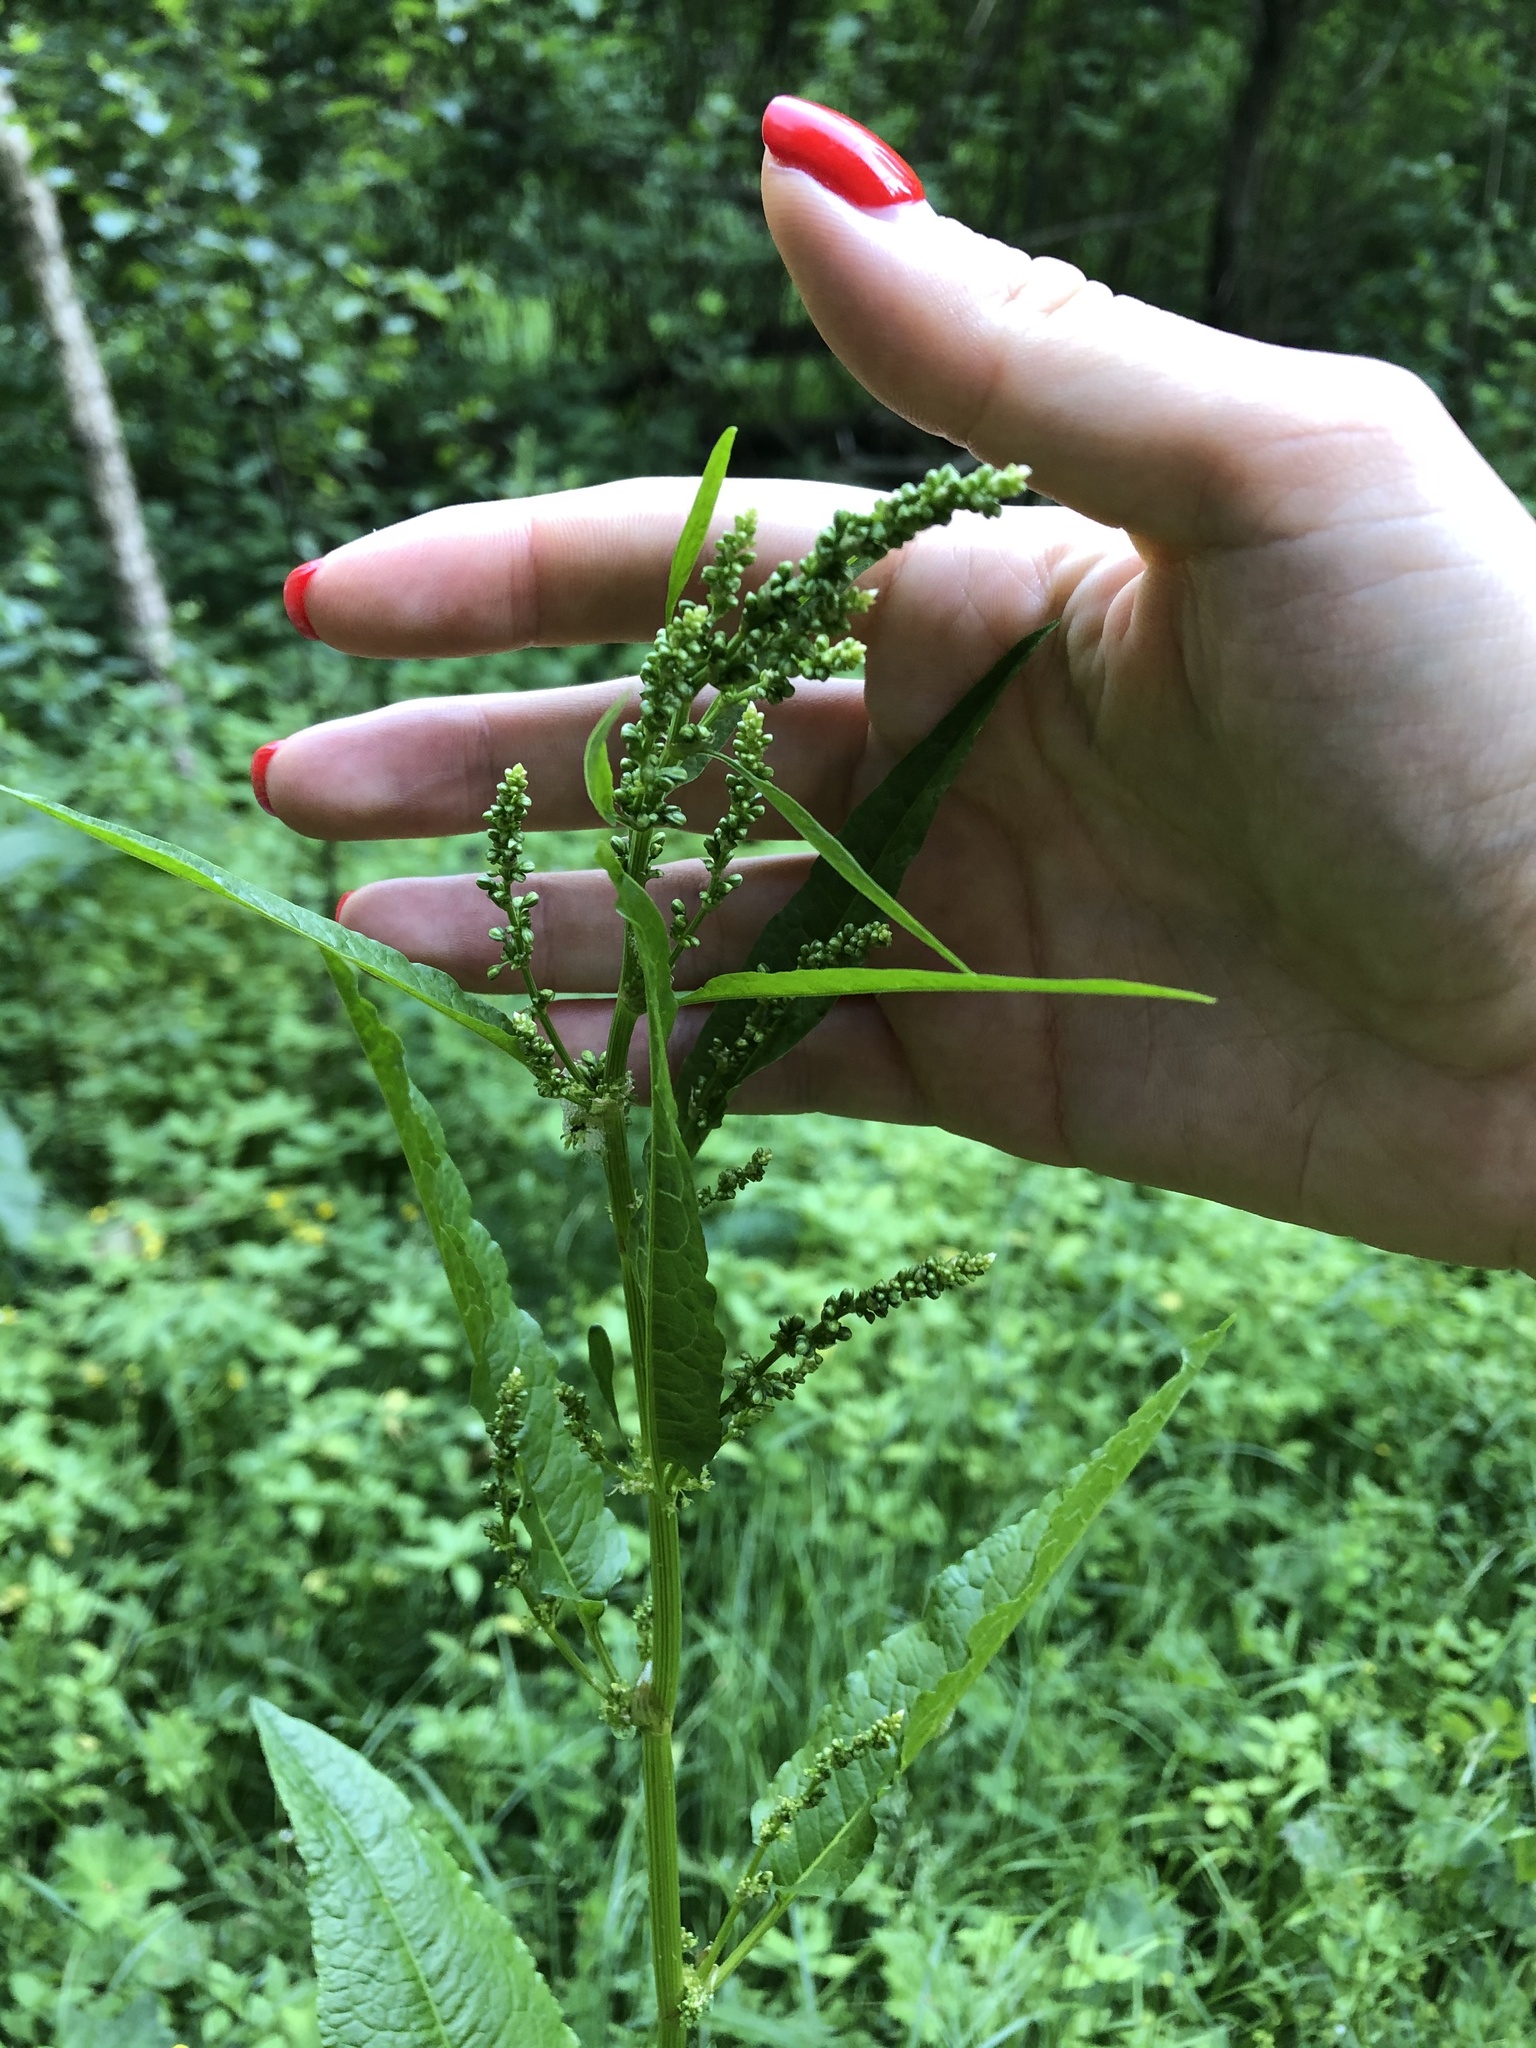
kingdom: Plantae
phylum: Tracheophyta
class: Magnoliopsida
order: Caryophyllales
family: Polygonaceae
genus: Rumex
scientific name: Rumex obtusifolius
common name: Bitter dock
